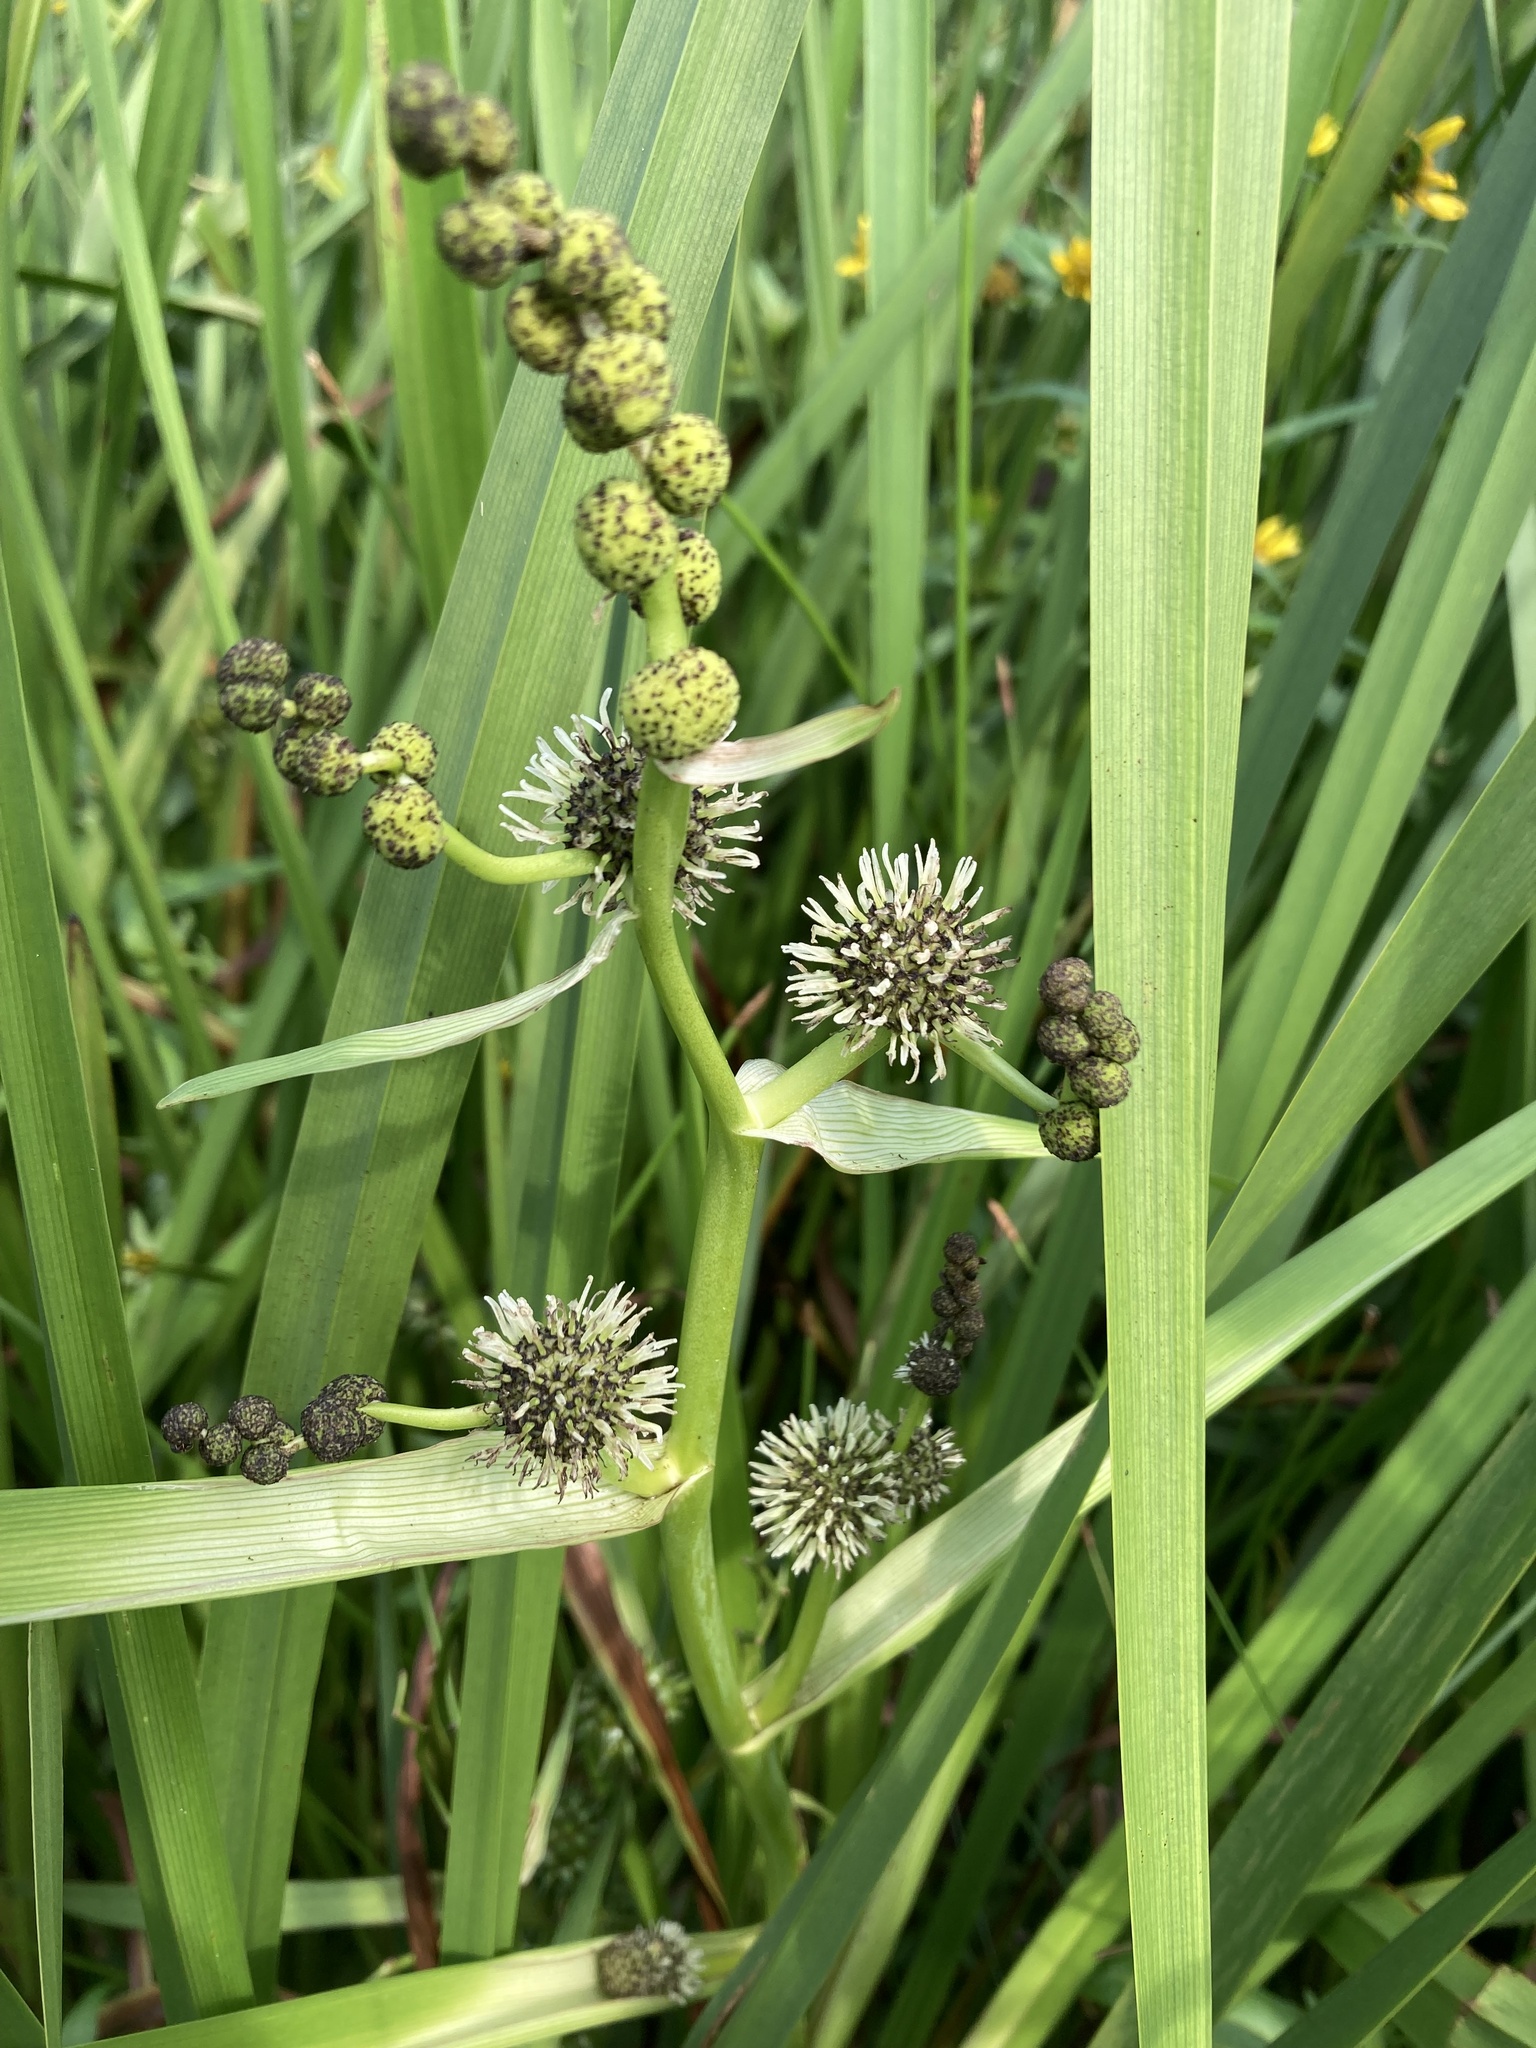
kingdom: Plantae
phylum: Tracheophyta
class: Liliopsida
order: Poales
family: Typhaceae
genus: Sparganium
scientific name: Sparganium eurycarpum
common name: Broad-fruited burreed
